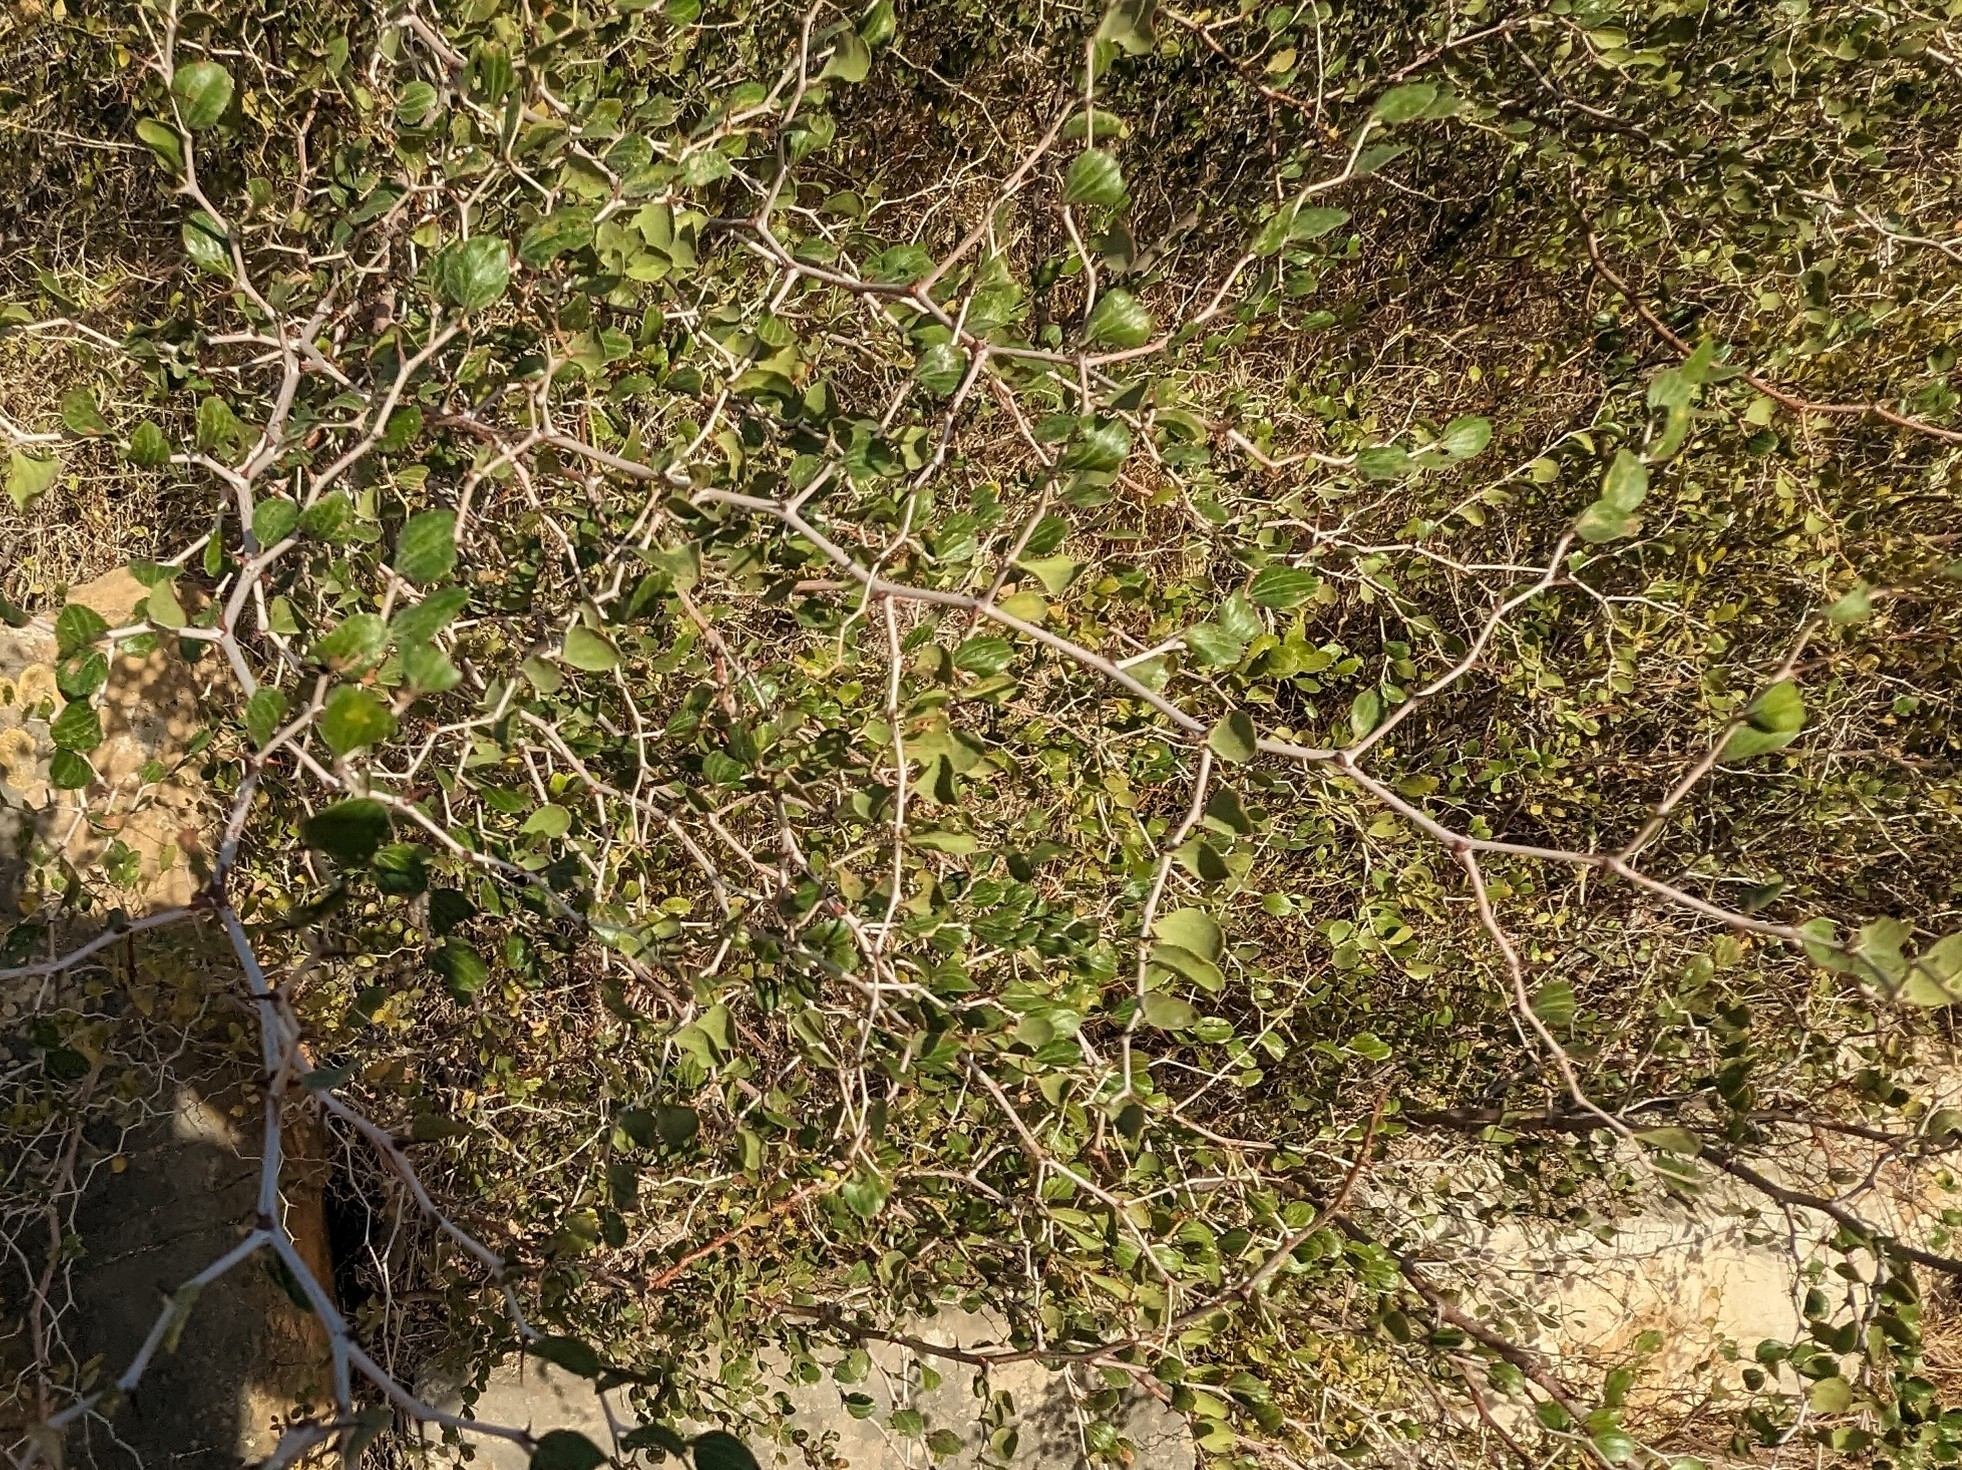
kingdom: Plantae
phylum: Tracheophyta
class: Magnoliopsida
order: Rosales
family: Rhamnaceae
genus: Ziziphus
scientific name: Ziziphus lotus
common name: Lotus
